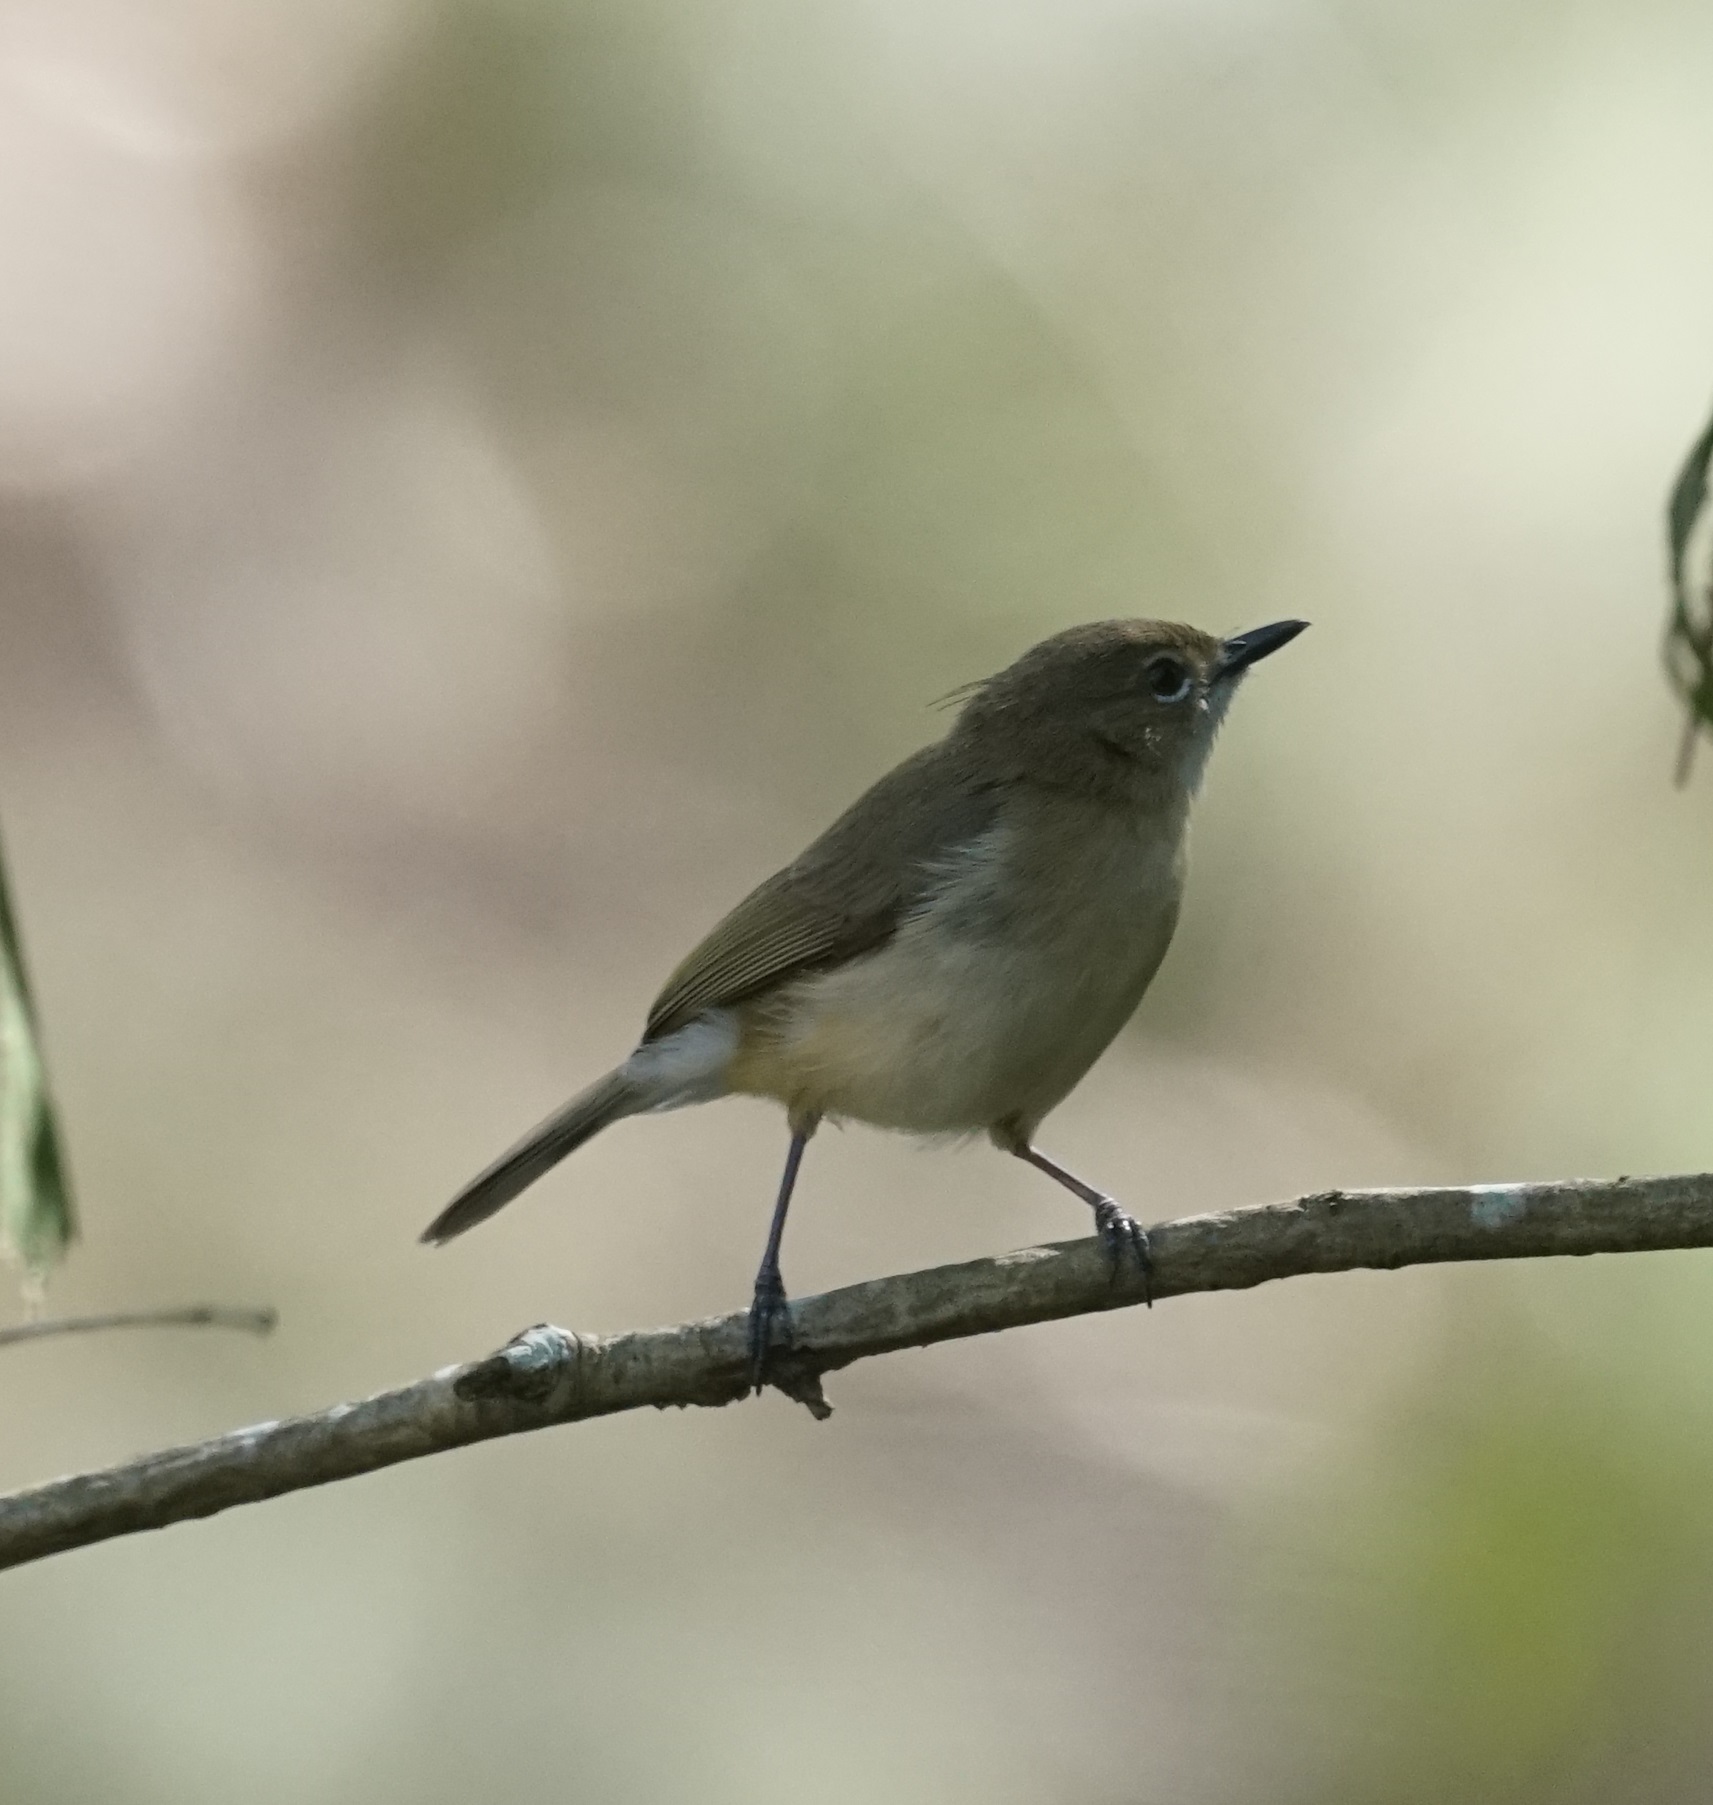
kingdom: Animalia
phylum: Chordata
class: Aves
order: Passeriformes
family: Acanthizidae
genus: Gerygone
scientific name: Gerygone magnirostris
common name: Large-billed gerygone
